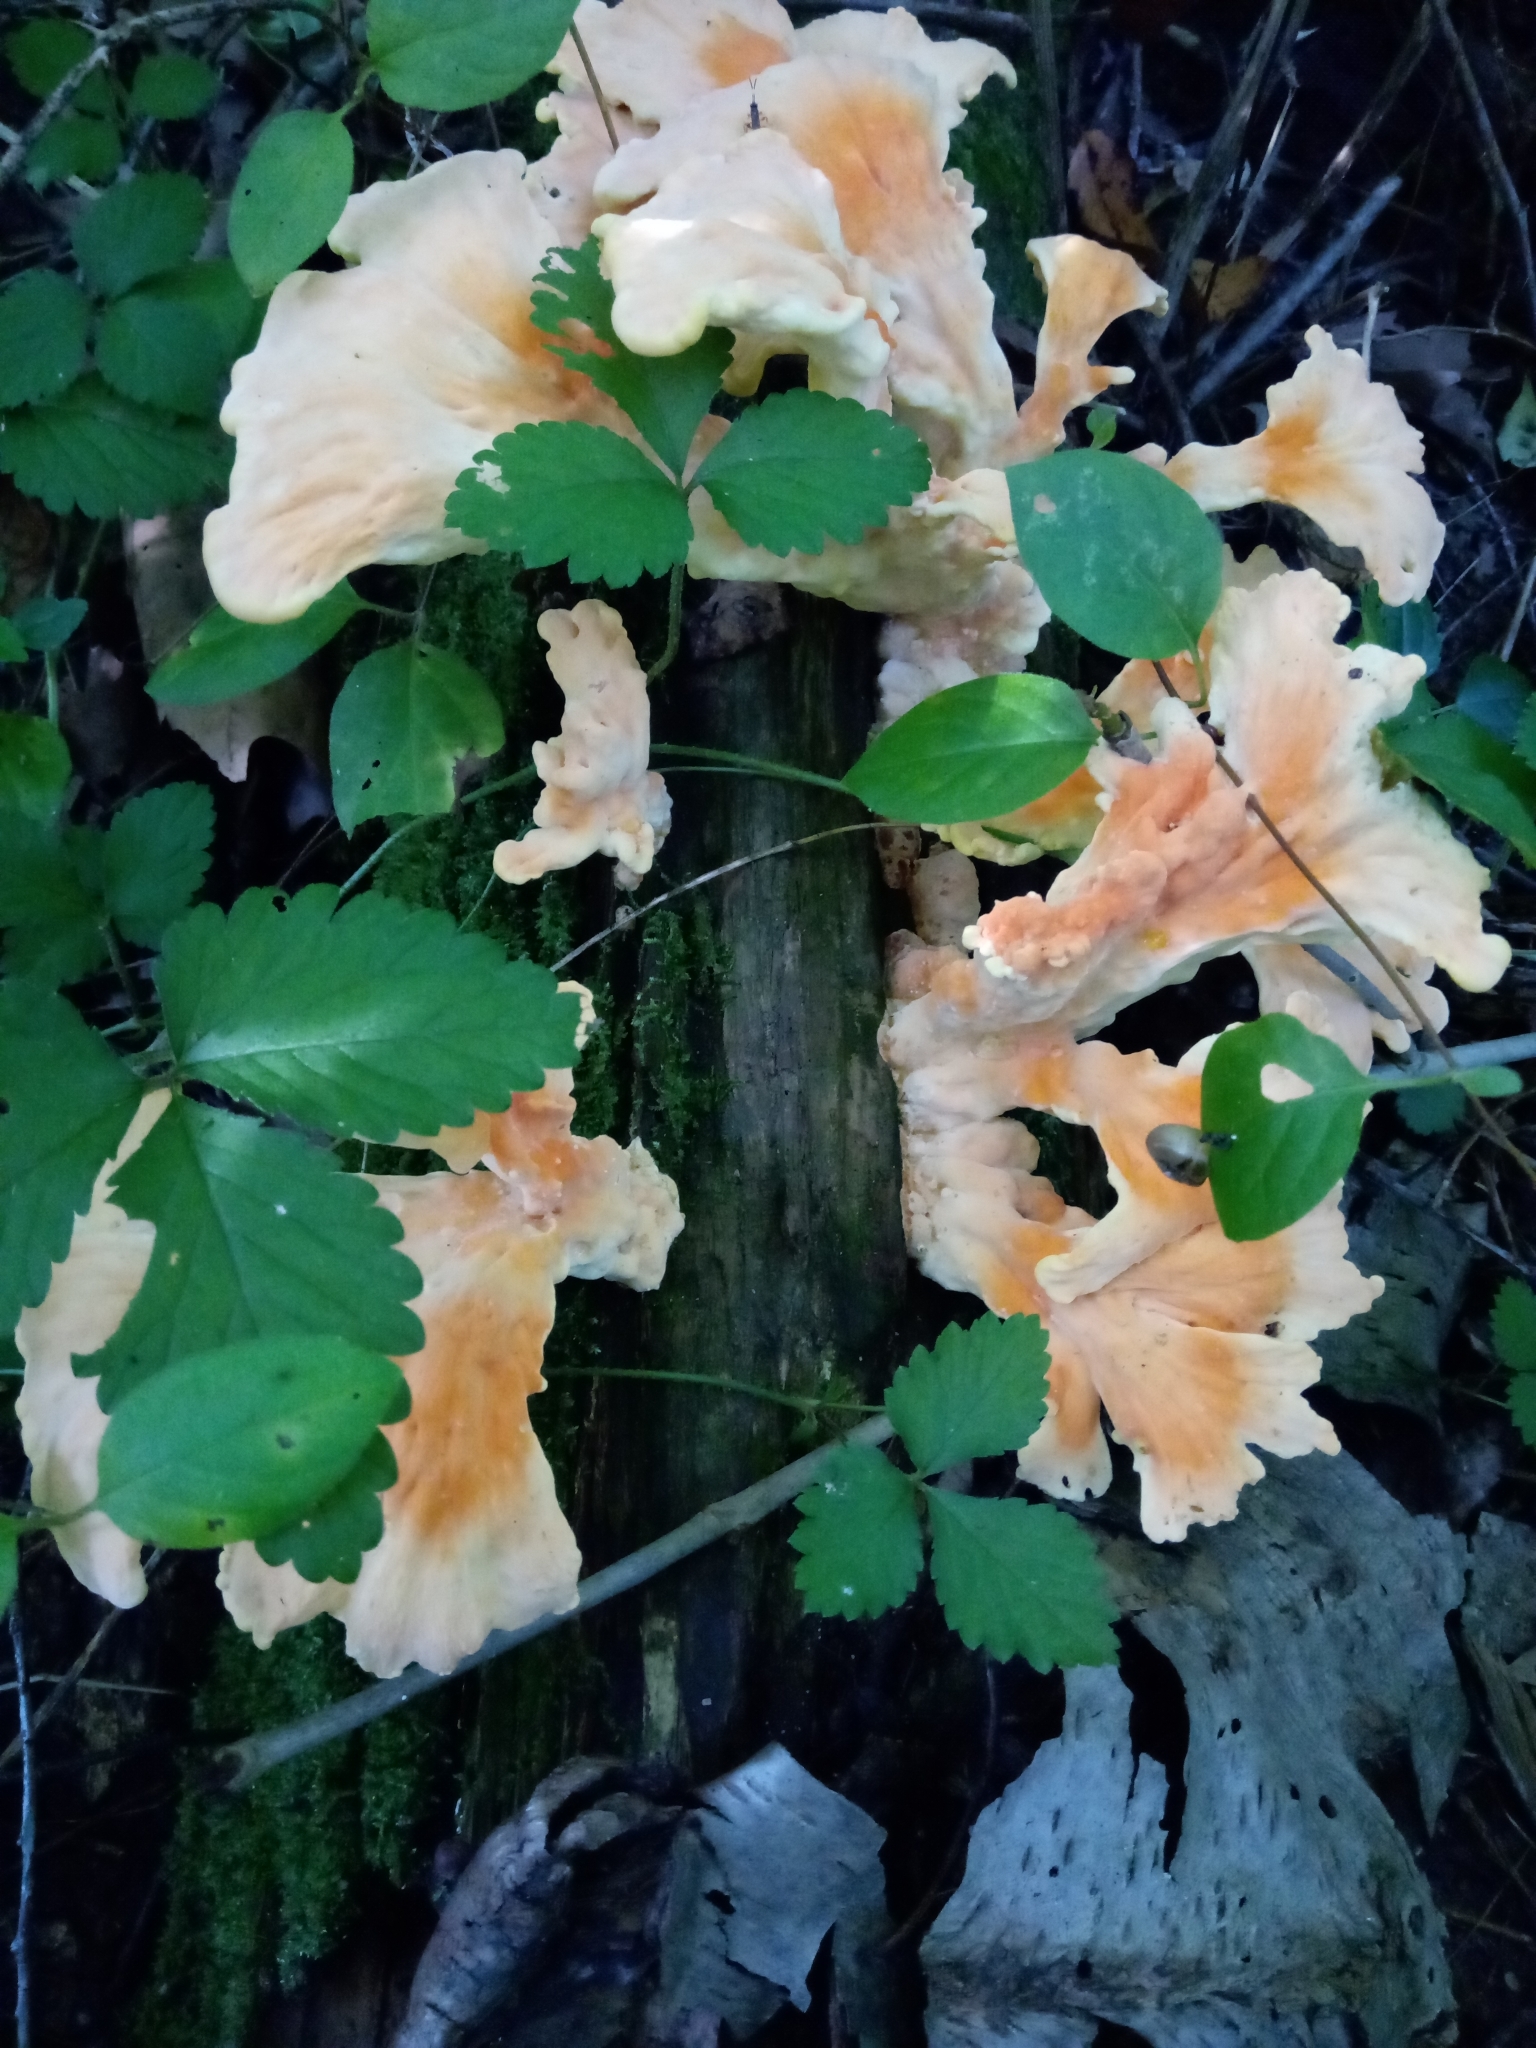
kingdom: Fungi
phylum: Basidiomycota
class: Agaricomycetes
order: Polyporales
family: Laetiporaceae
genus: Laetiporus
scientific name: Laetiporus sulphureus
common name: Chicken of the woods
